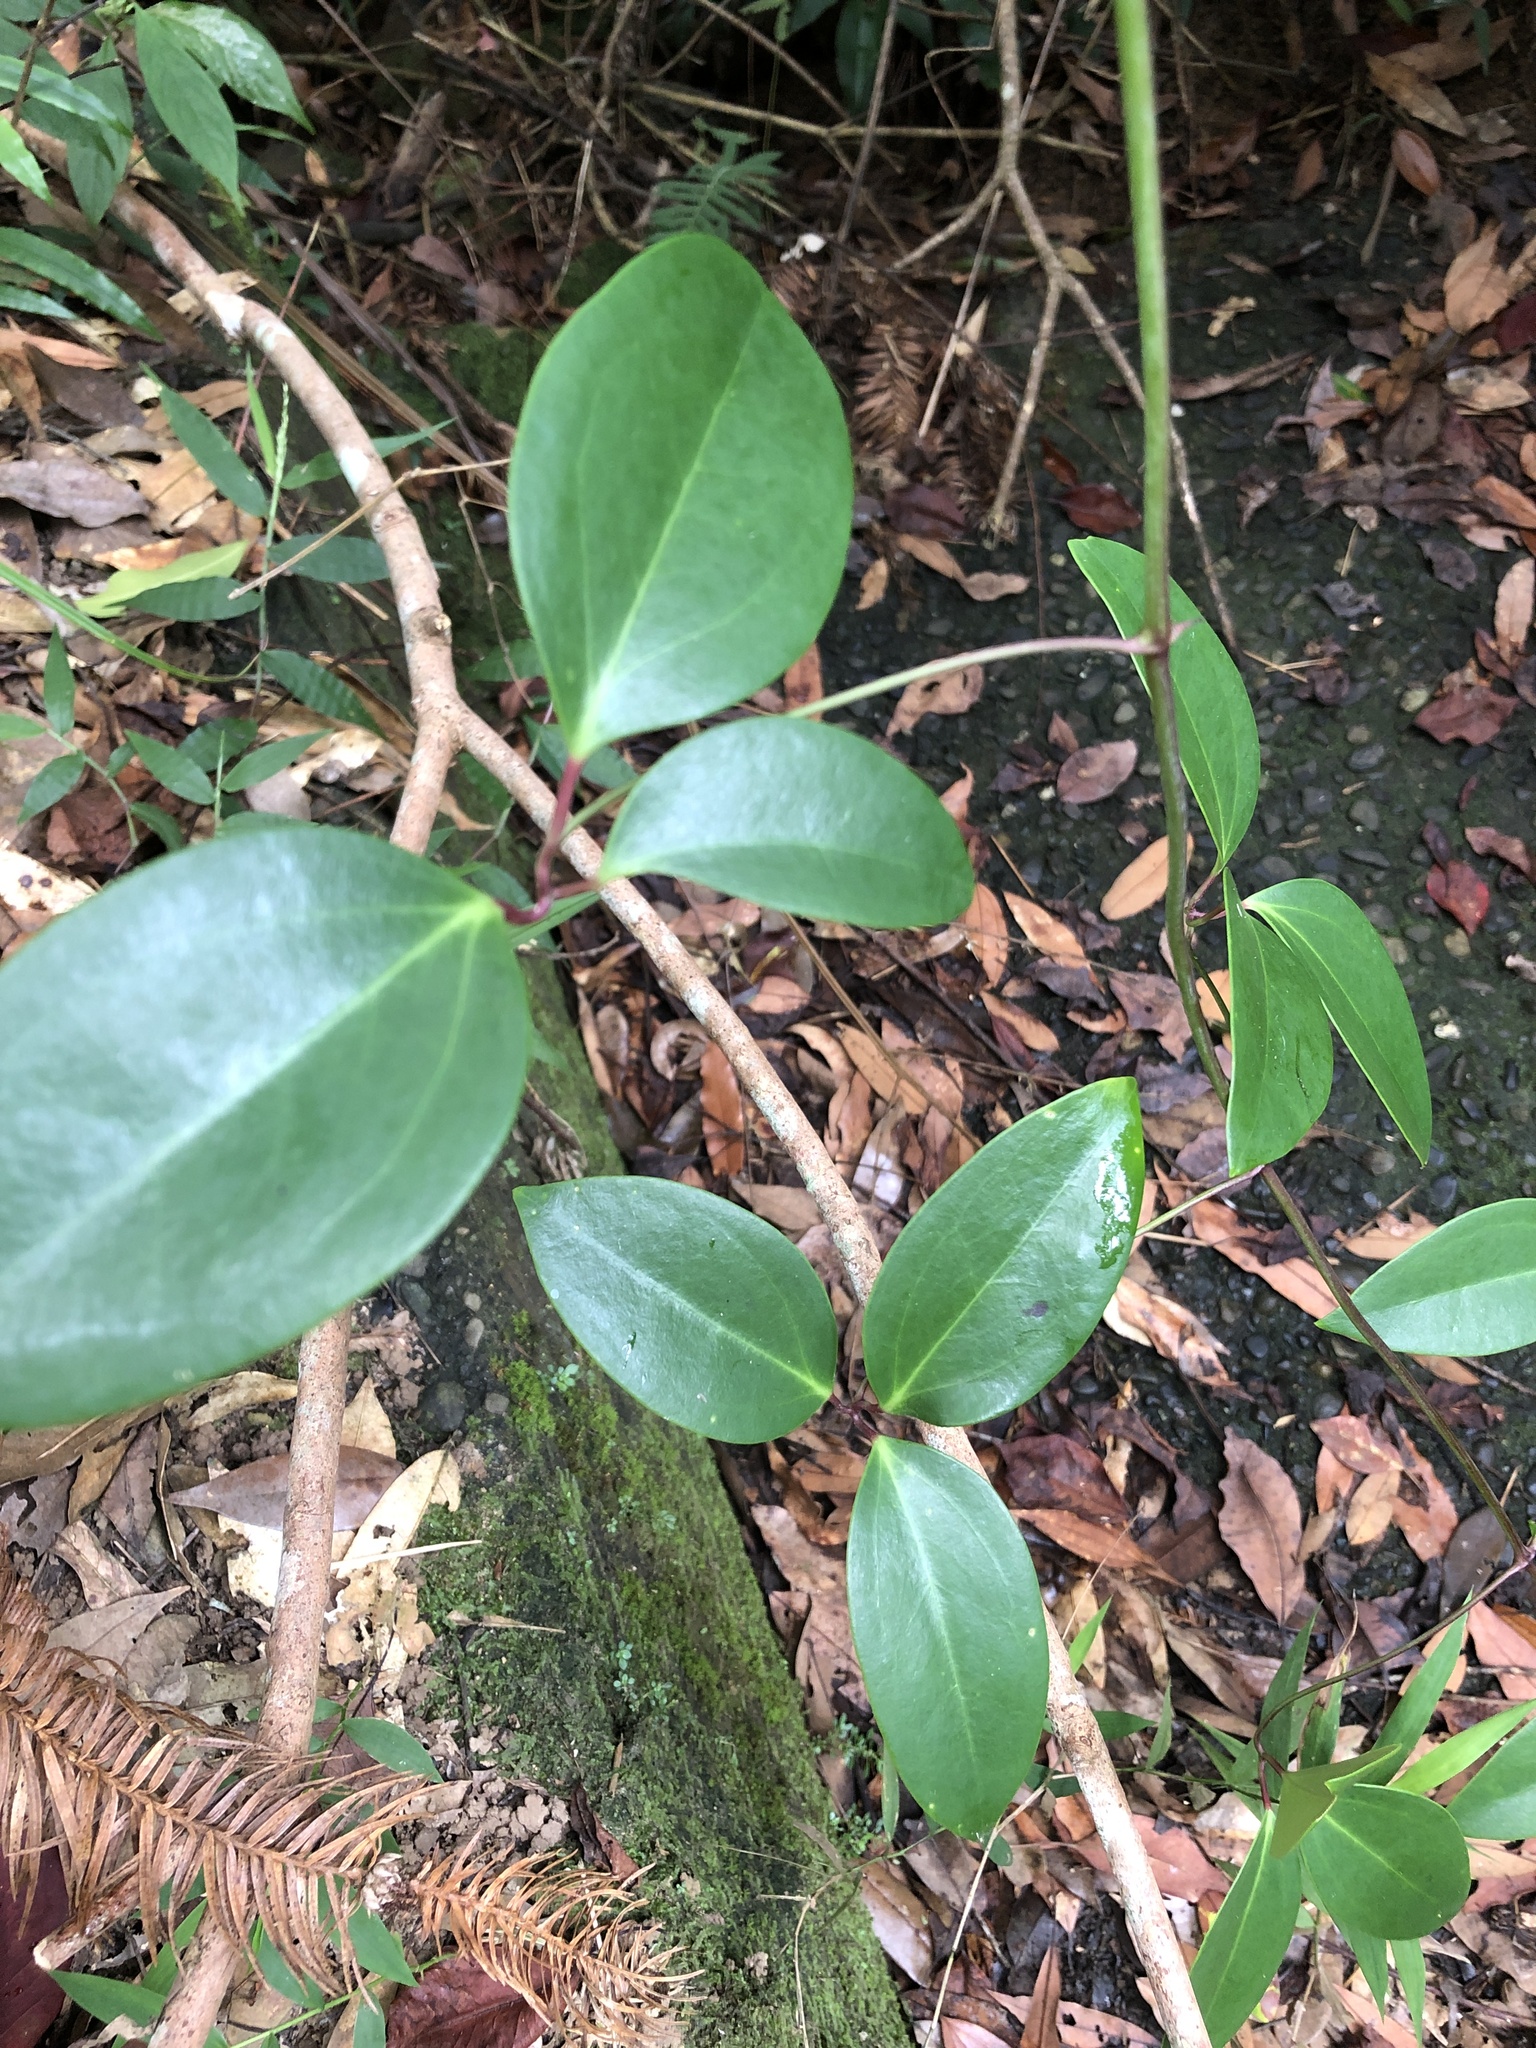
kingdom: Plantae
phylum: Tracheophyta
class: Magnoliopsida
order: Ranunculales
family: Ranunculaceae
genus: Clematis
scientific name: Clematis crassifolia
